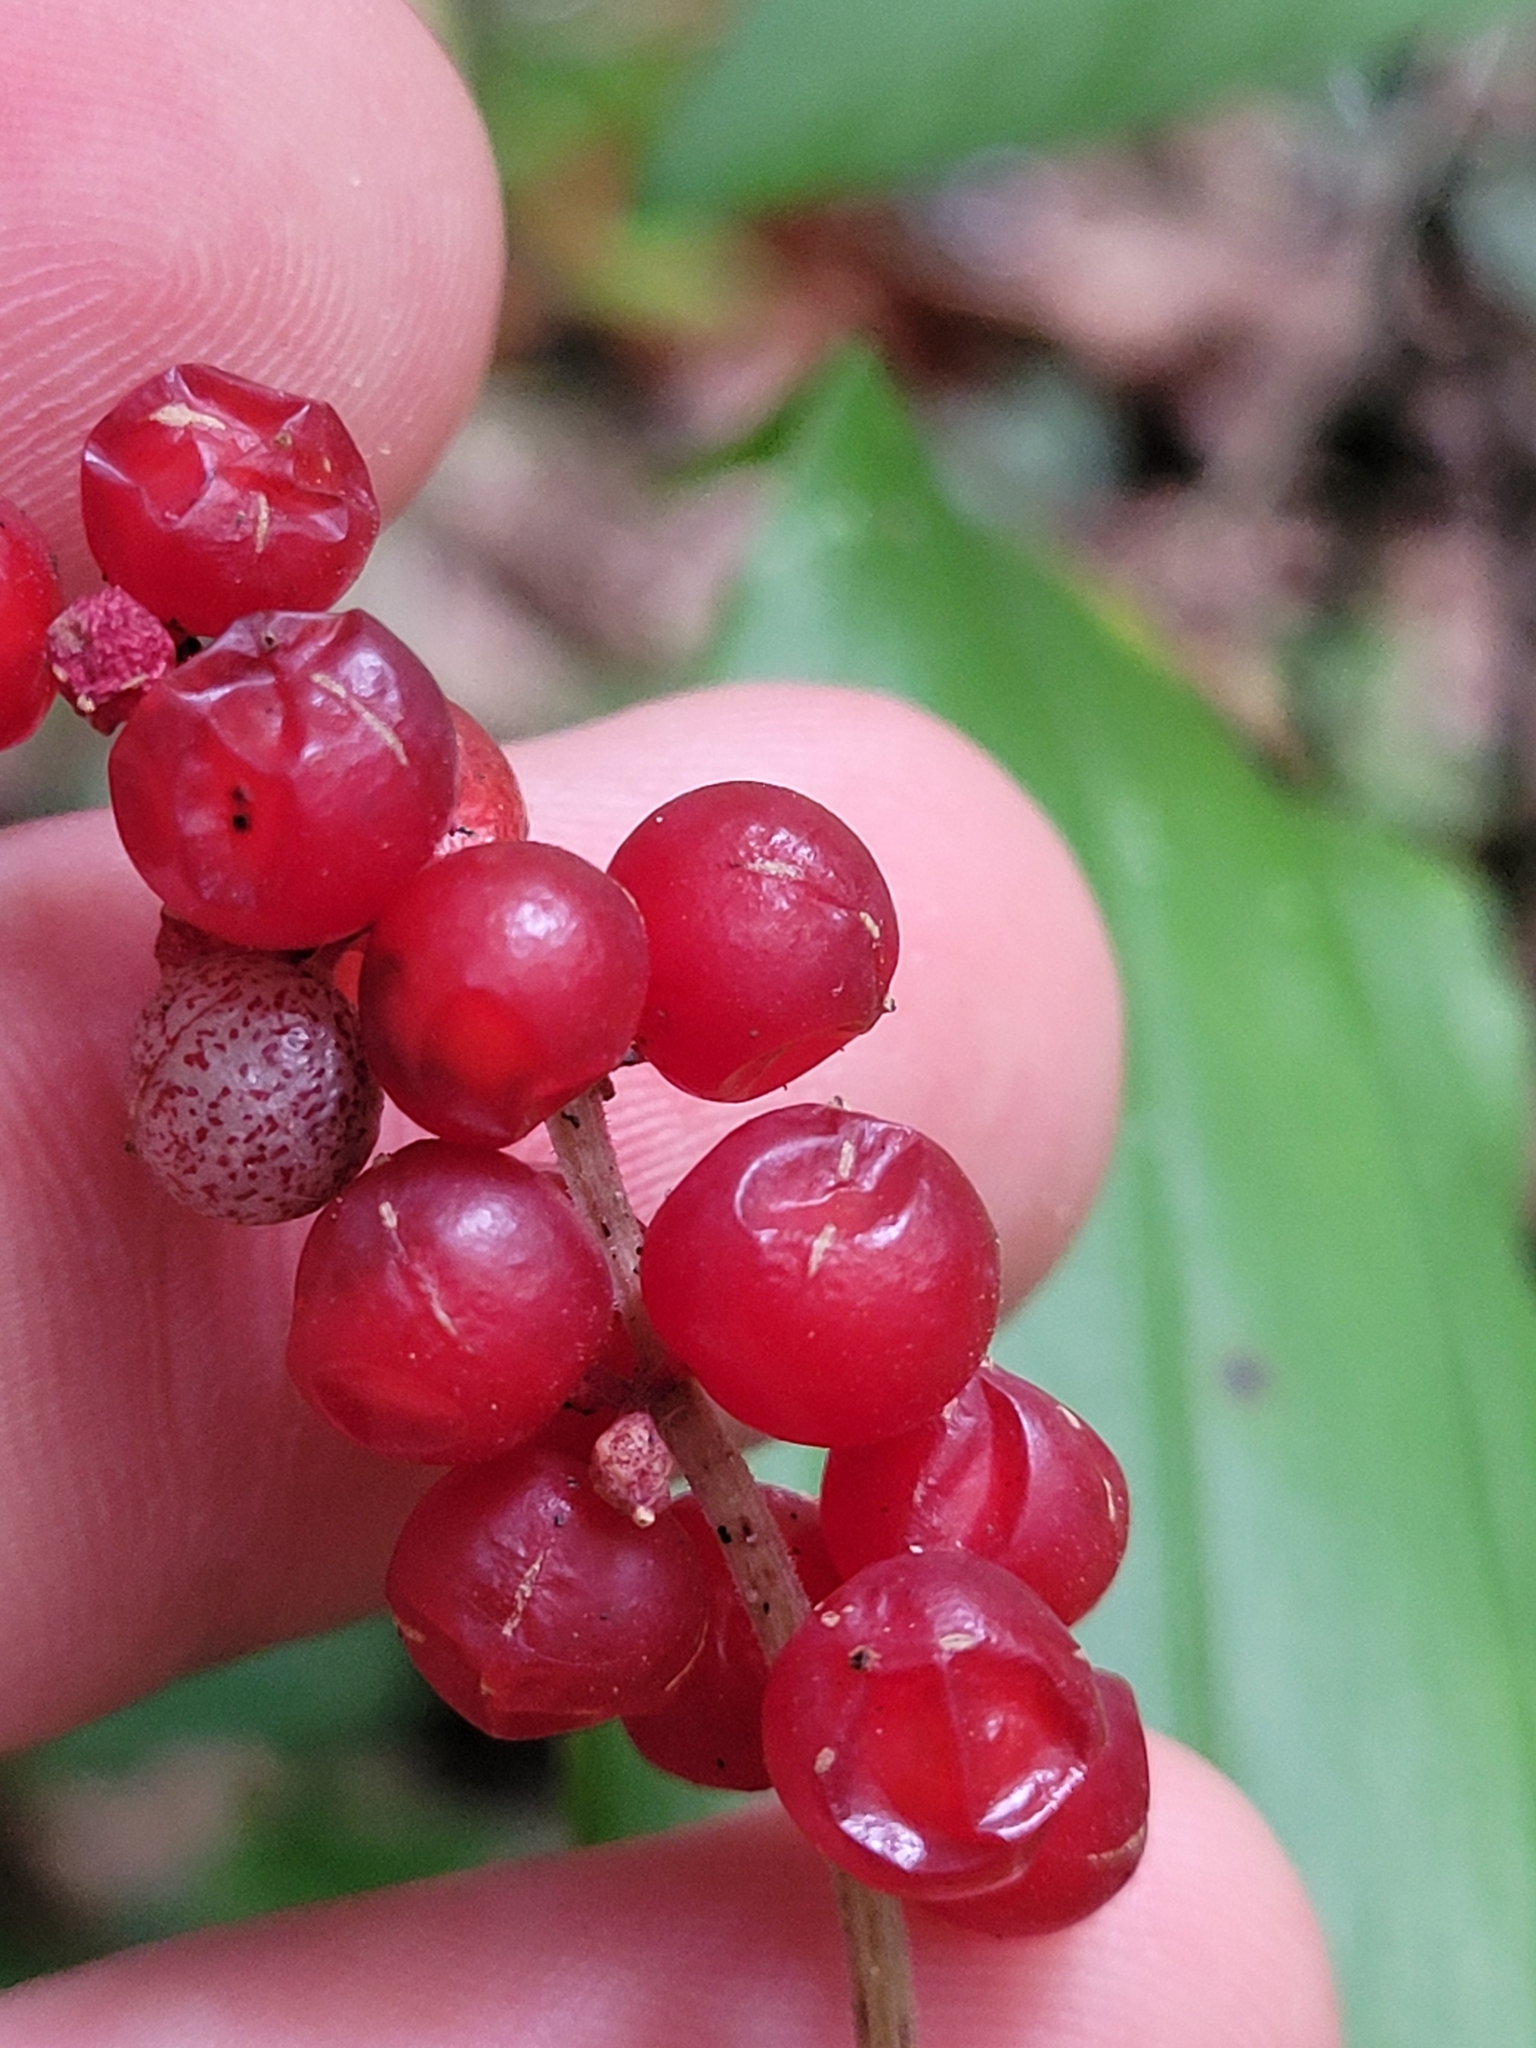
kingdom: Plantae
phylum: Tracheophyta
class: Liliopsida
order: Asparagales
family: Asparagaceae
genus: Maianthemum
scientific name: Maianthemum racemosum
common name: False spikenard
